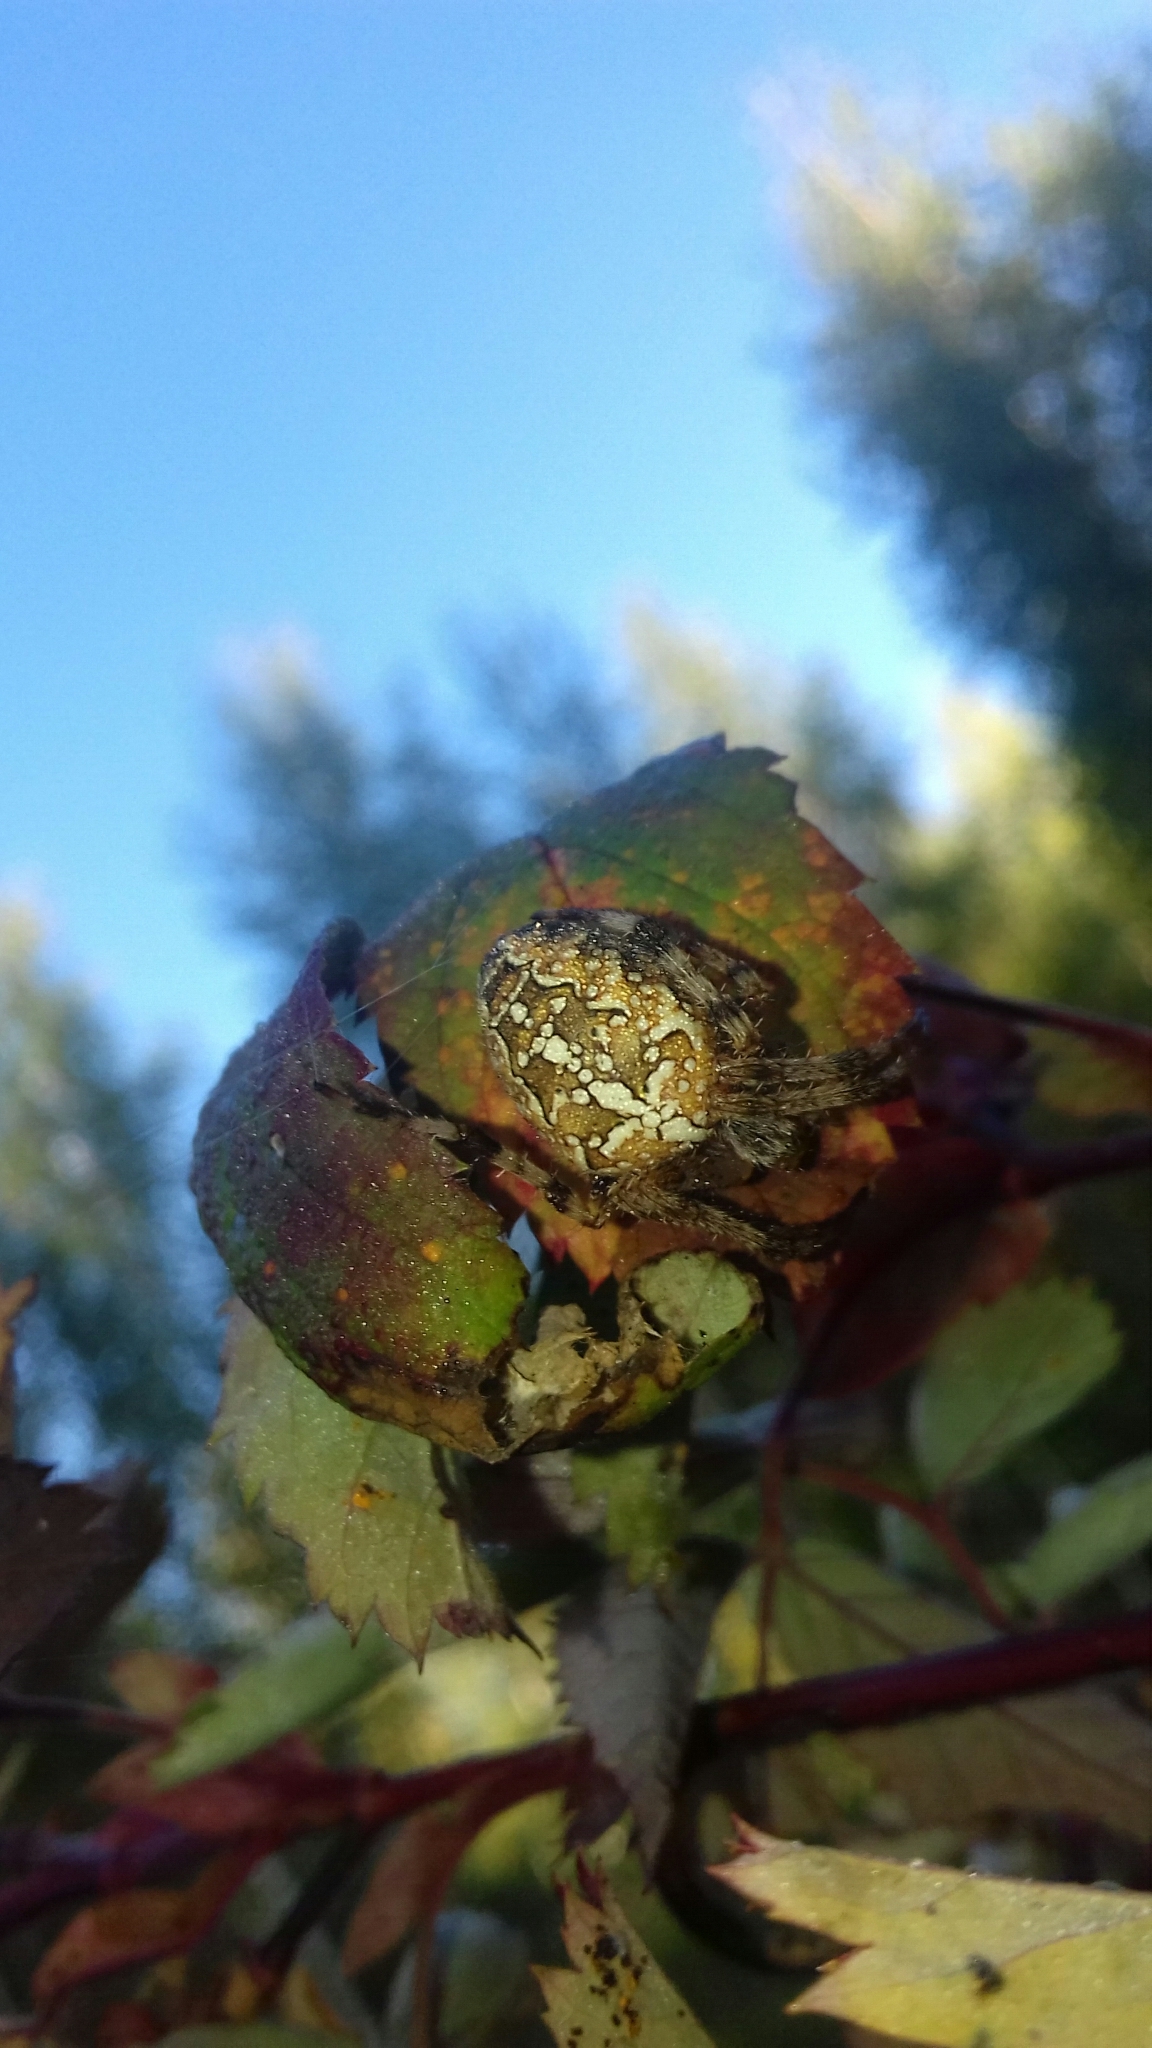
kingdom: Animalia
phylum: Arthropoda
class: Arachnida
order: Araneae
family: Araneidae
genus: Araneus
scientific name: Araneus diadematus
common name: Cross orbweaver
